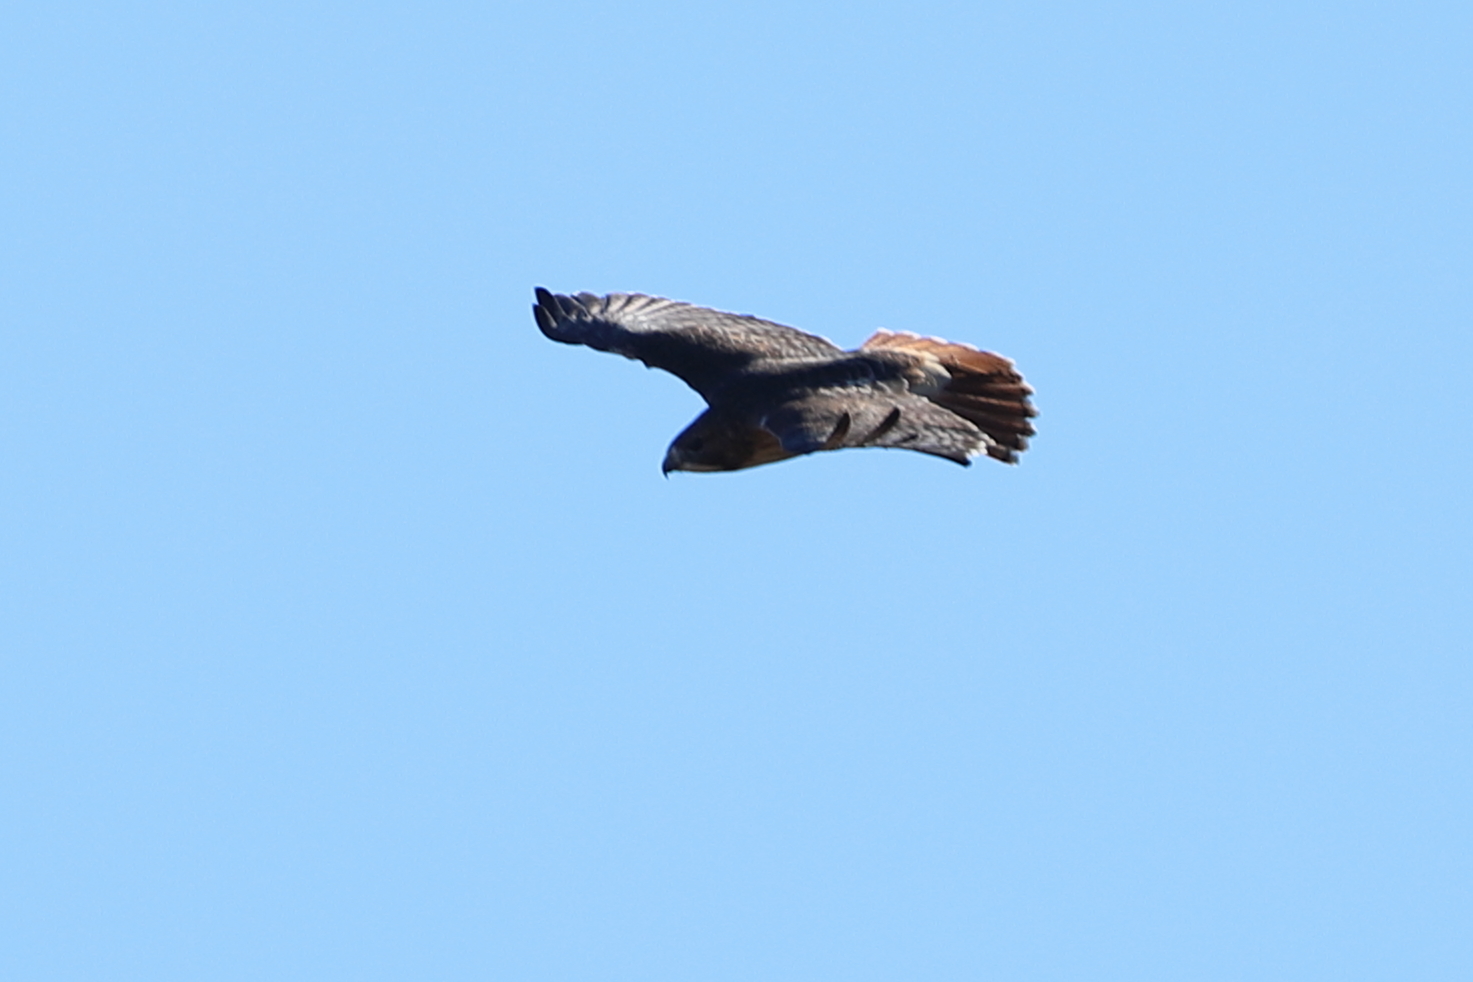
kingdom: Animalia
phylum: Chordata
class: Aves
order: Accipitriformes
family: Accipitridae
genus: Buteo
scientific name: Buteo jamaicensis
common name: Red-tailed hawk
